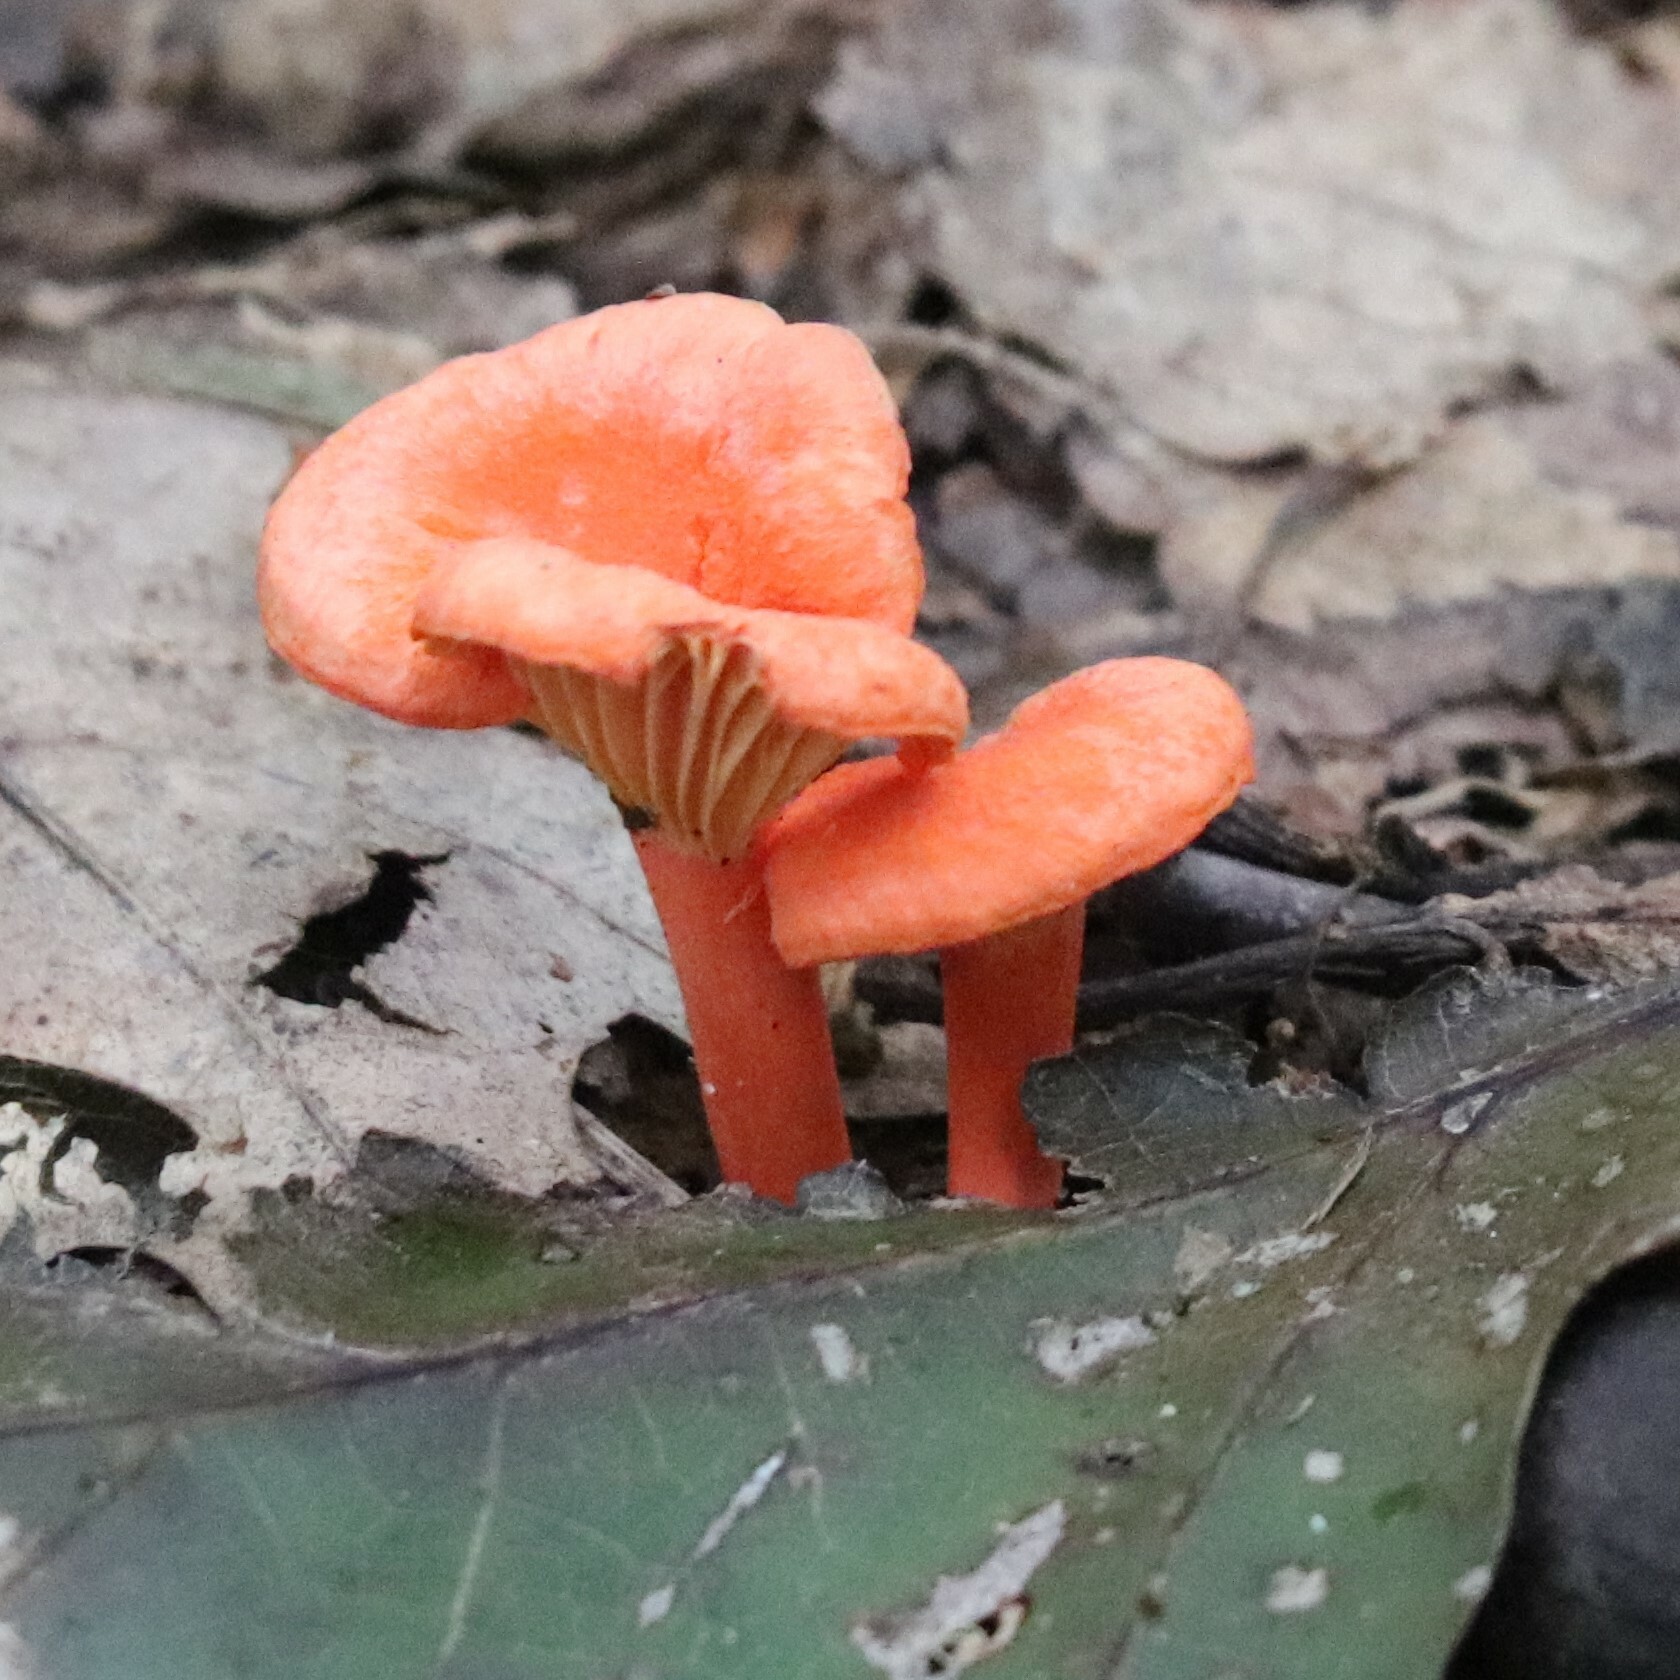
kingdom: Fungi
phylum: Basidiomycota
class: Agaricomycetes
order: Cantharellales
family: Hydnaceae
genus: Cantharellus
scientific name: Cantharellus cinnabarinus
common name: Cinnabar chanterelle
